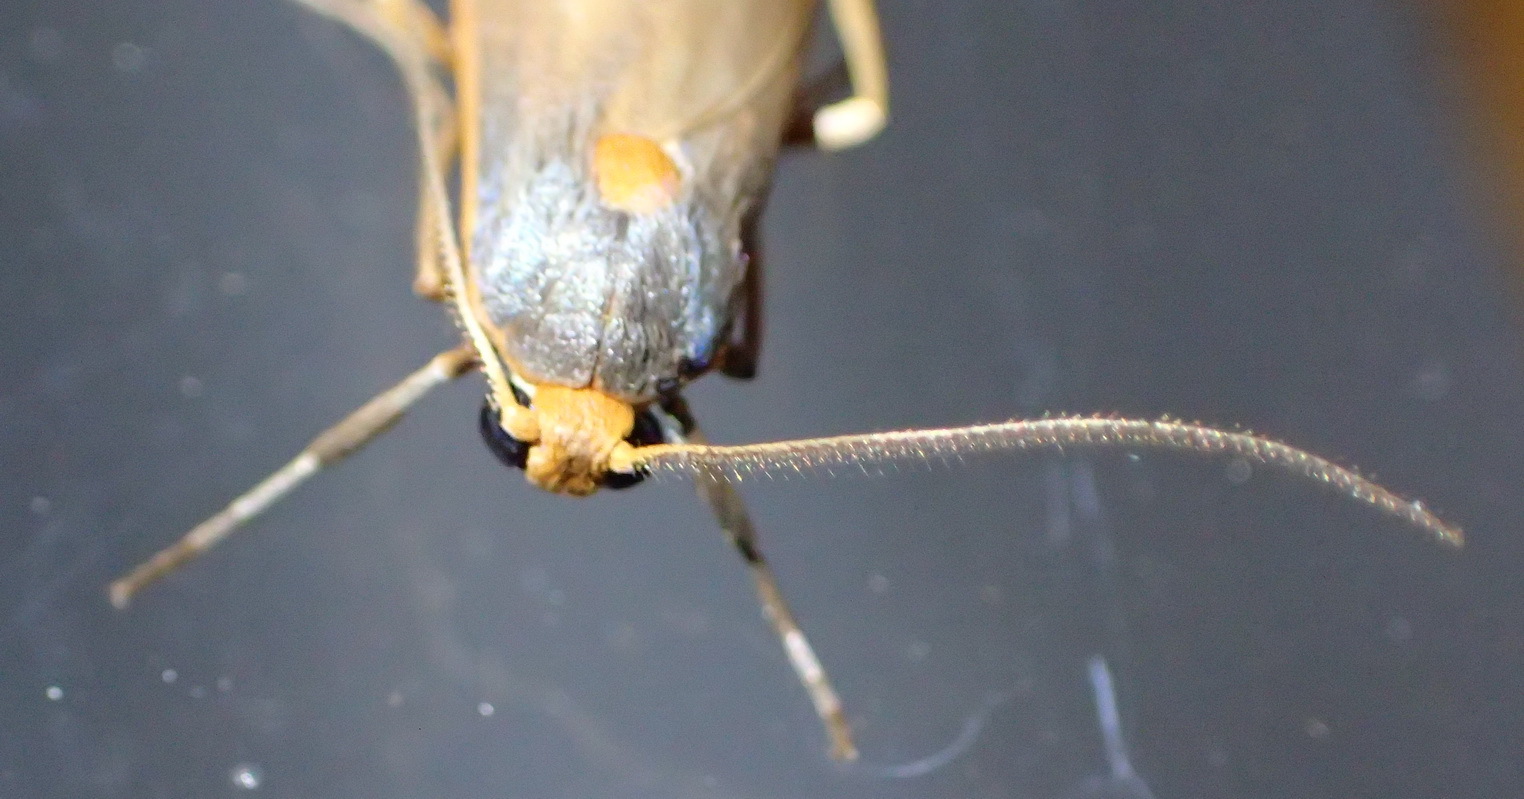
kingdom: Animalia
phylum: Arthropoda
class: Insecta
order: Lepidoptera
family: Erebidae
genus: Sozusa
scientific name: Sozusa scutellata
